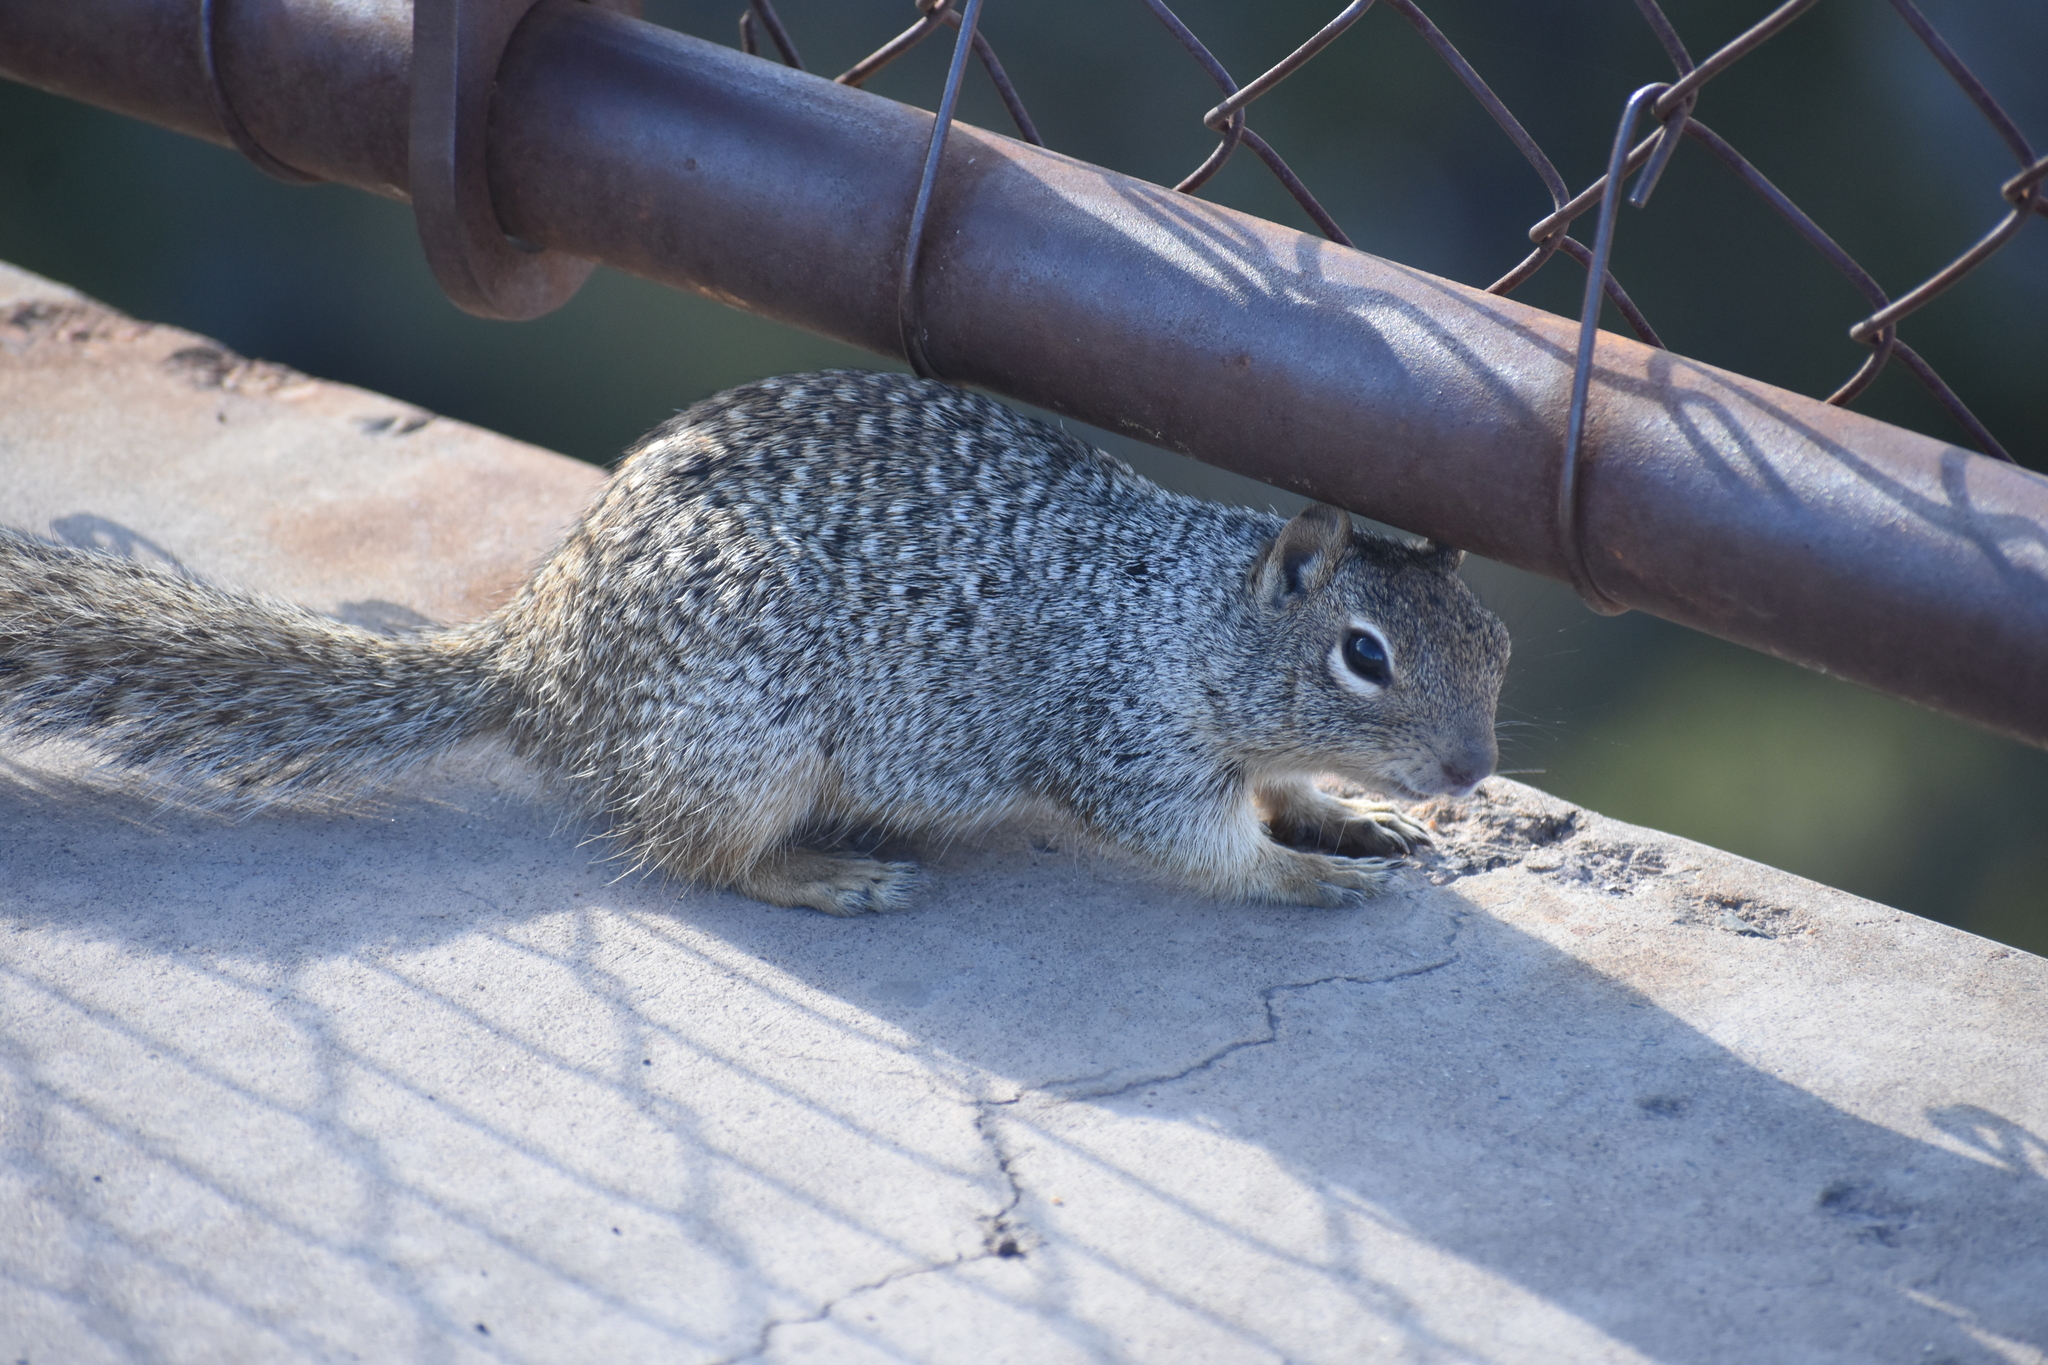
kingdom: Animalia
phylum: Chordata
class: Mammalia
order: Rodentia
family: Sciuridae
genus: Otospermophilus
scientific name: Otospermophilus variegatus
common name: Rock squirrel
